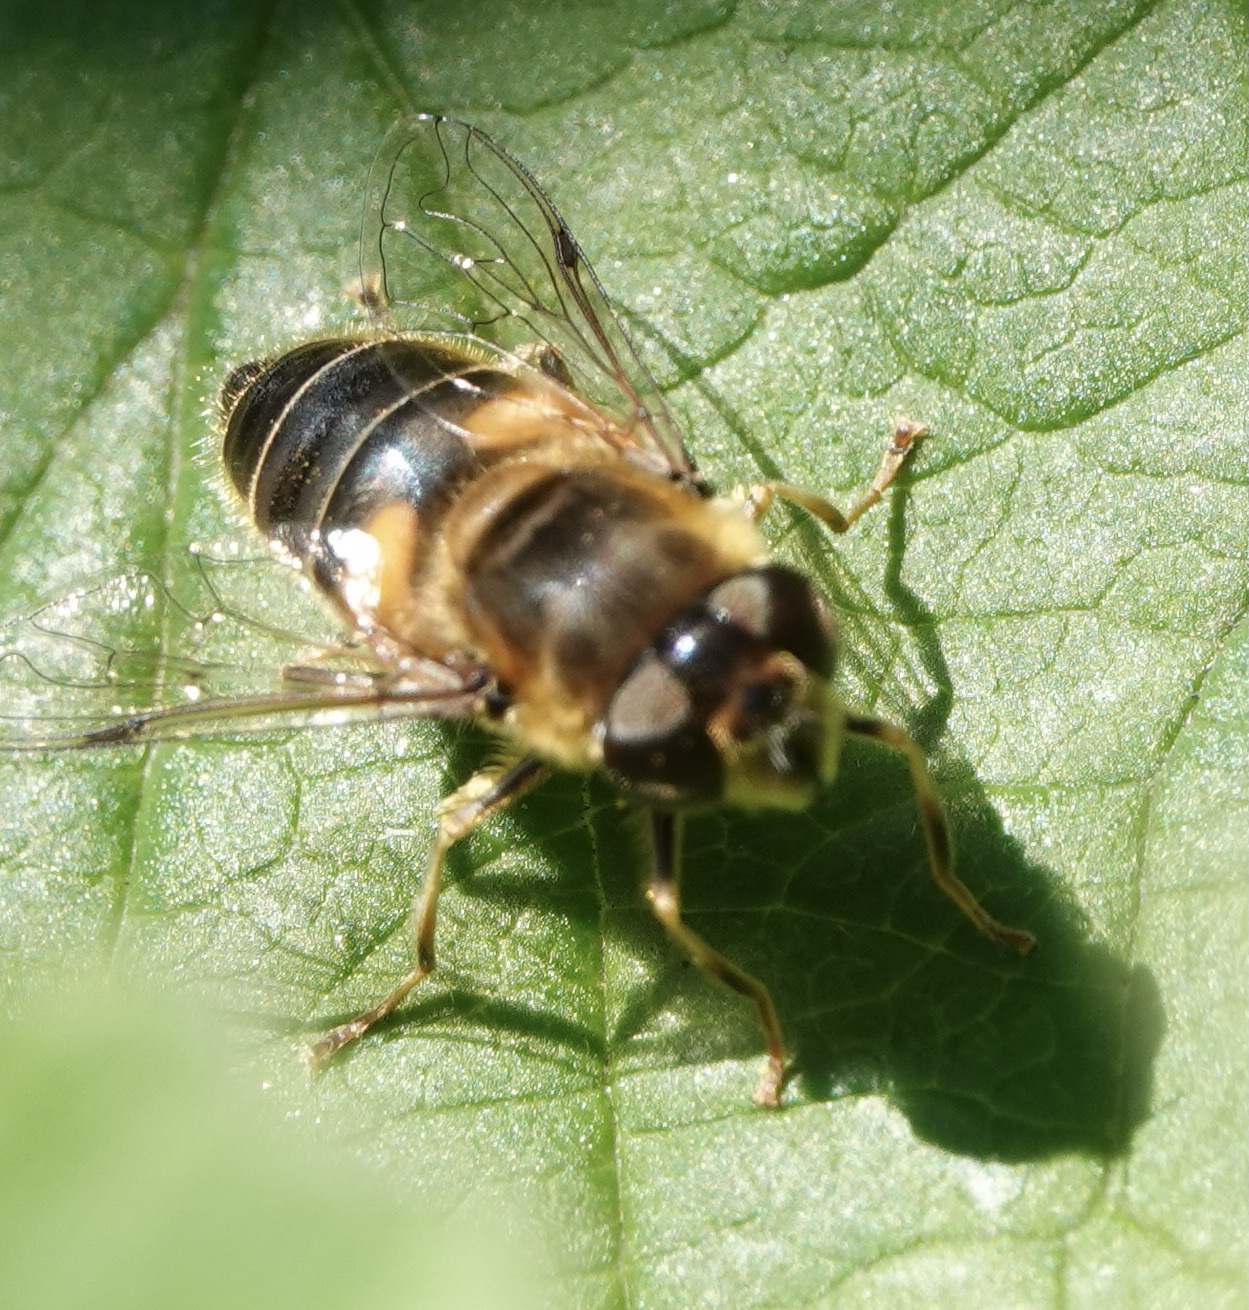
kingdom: Animalia
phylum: Arthropoda
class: Insecta
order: Diptera
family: Syrphidae
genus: Eristalis
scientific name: Eristalis pertinax
